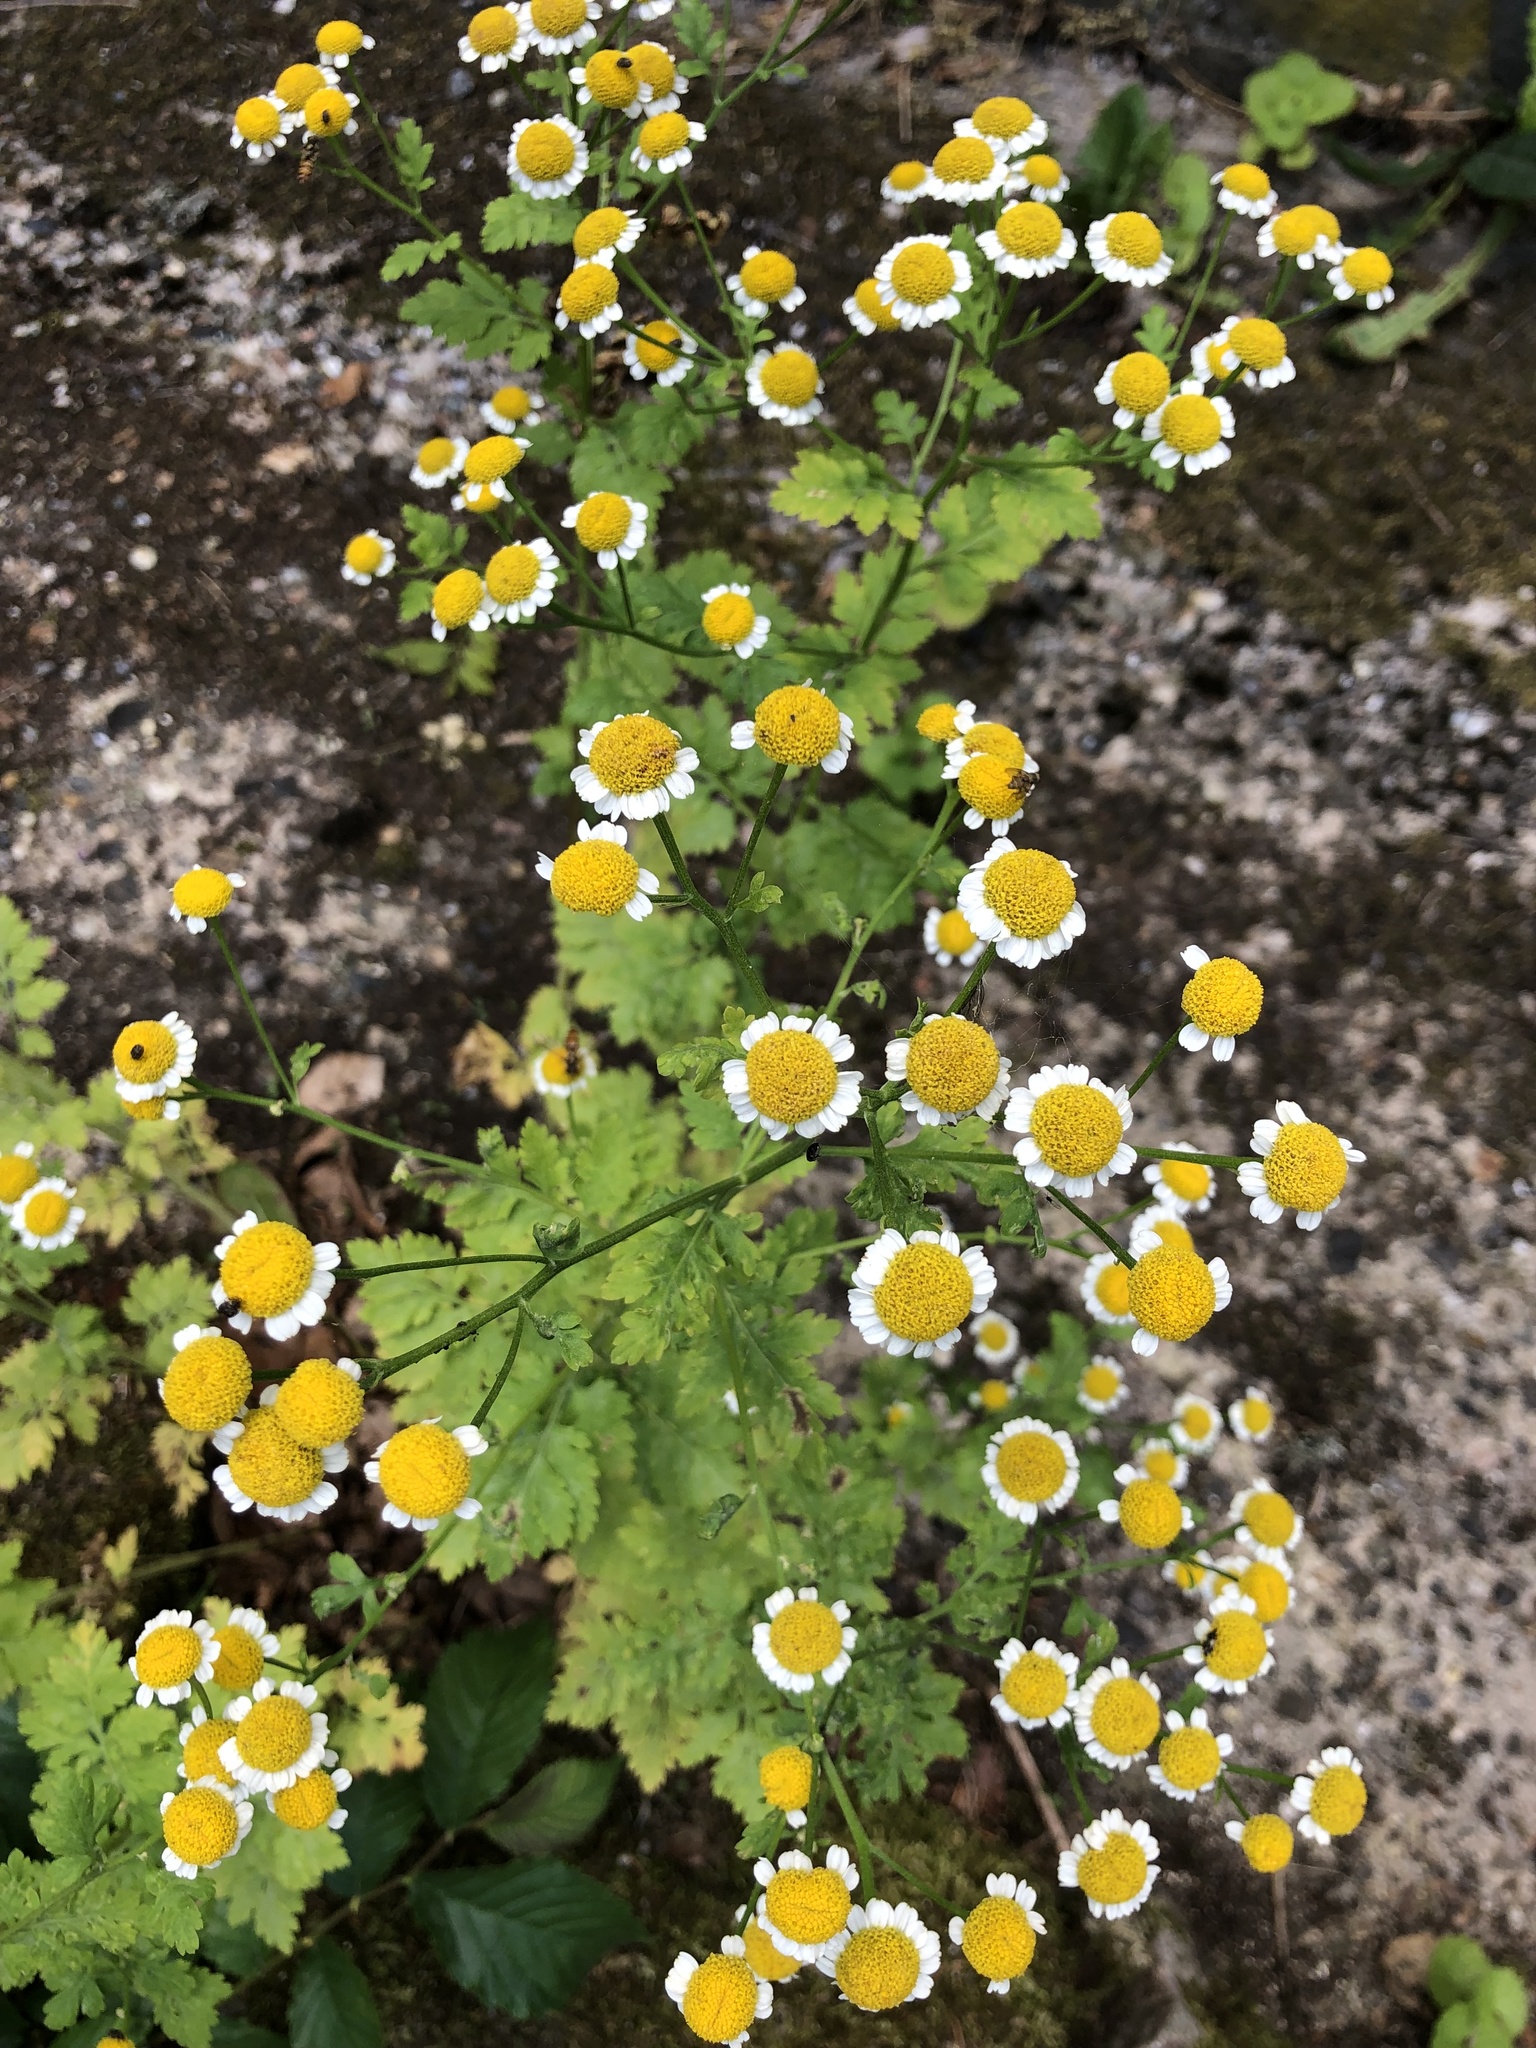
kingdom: Plantae
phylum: Tracheophyta
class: Magnoliopsida
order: Asterales
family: Asteraceae
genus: Tanacetum
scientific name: Tanacetum parthenium
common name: Feverfew
